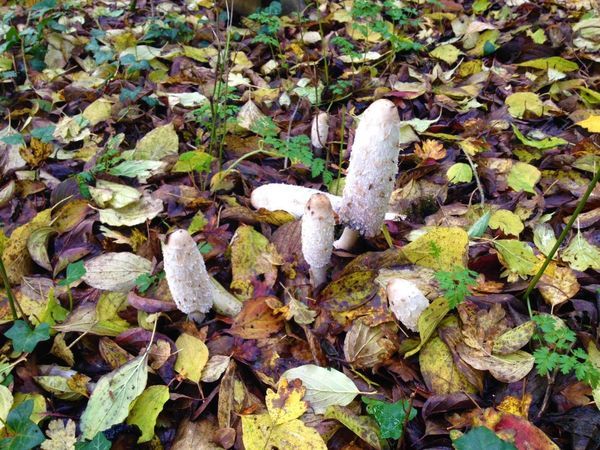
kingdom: Fungi
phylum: Basidiomycota
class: Agaricomycetes
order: Agaricales
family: Agaricaceae
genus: Coprinus
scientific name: Coprinus comatus
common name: Lawyer's wig
